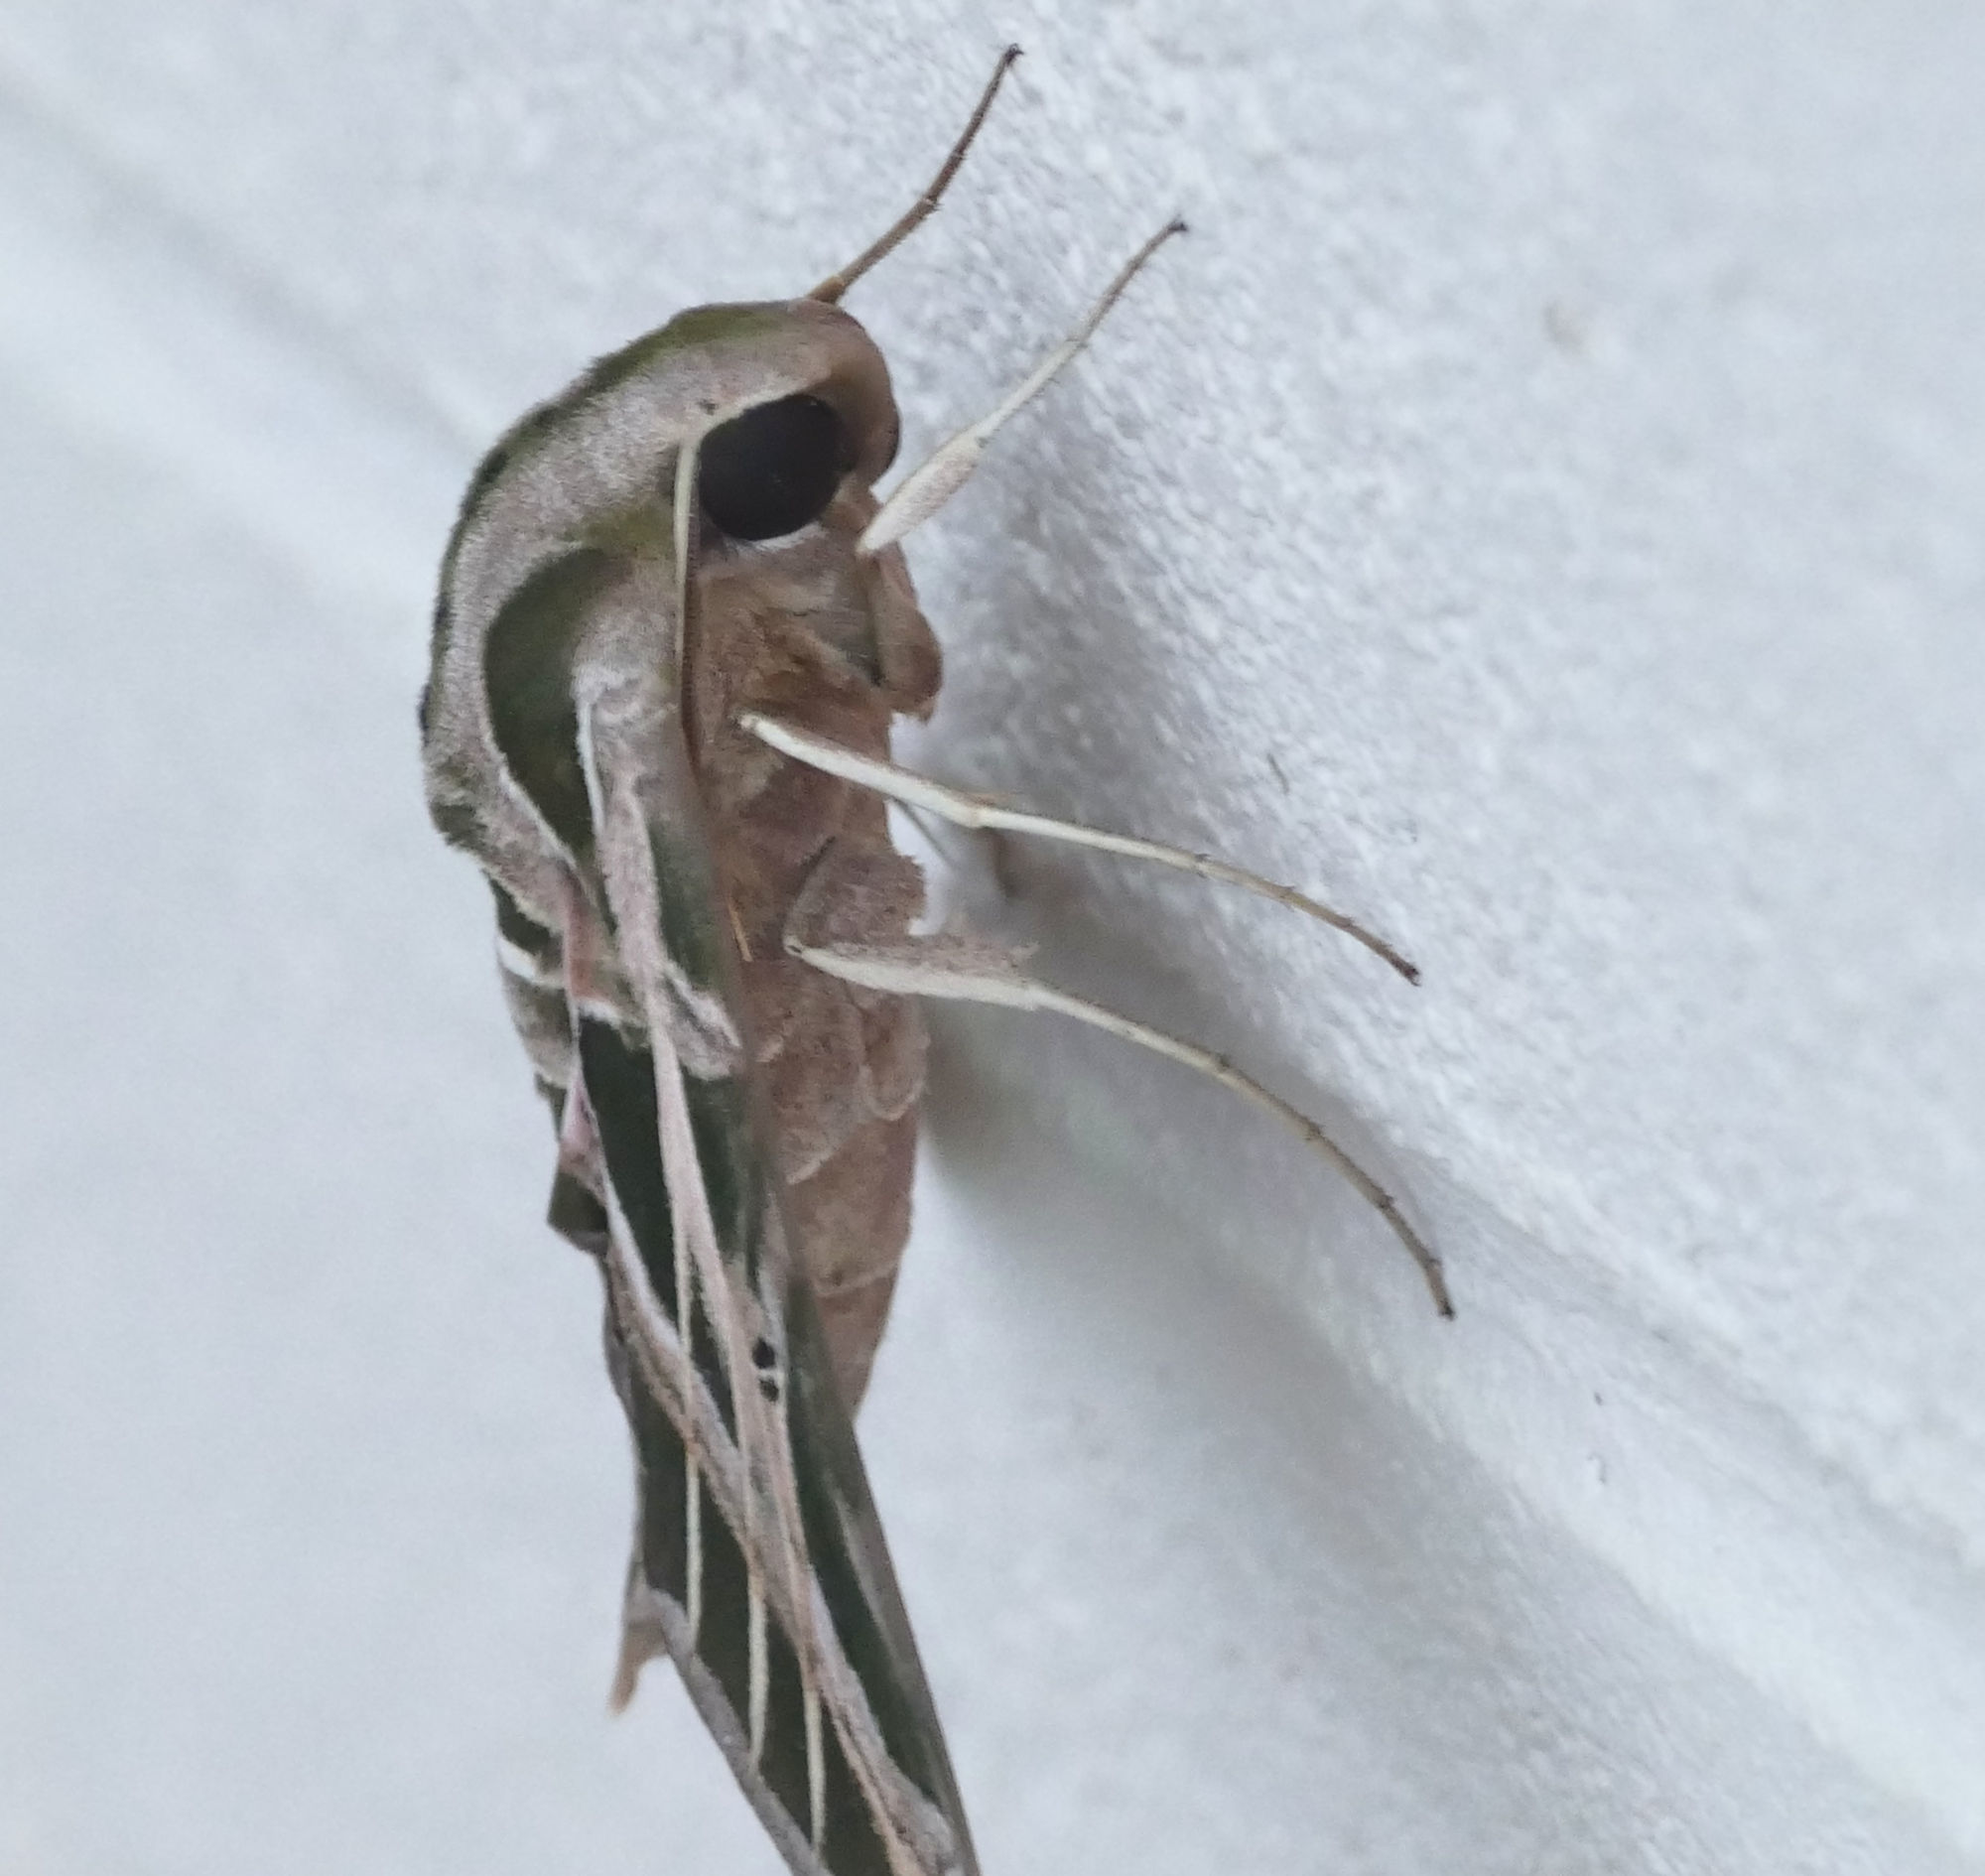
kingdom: Animalia
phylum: Arthropoda
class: Insecta
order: Lepidoptera
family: Sphingidae
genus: Eumorpha
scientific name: Eumorpha vitis
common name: Vine sphinx
